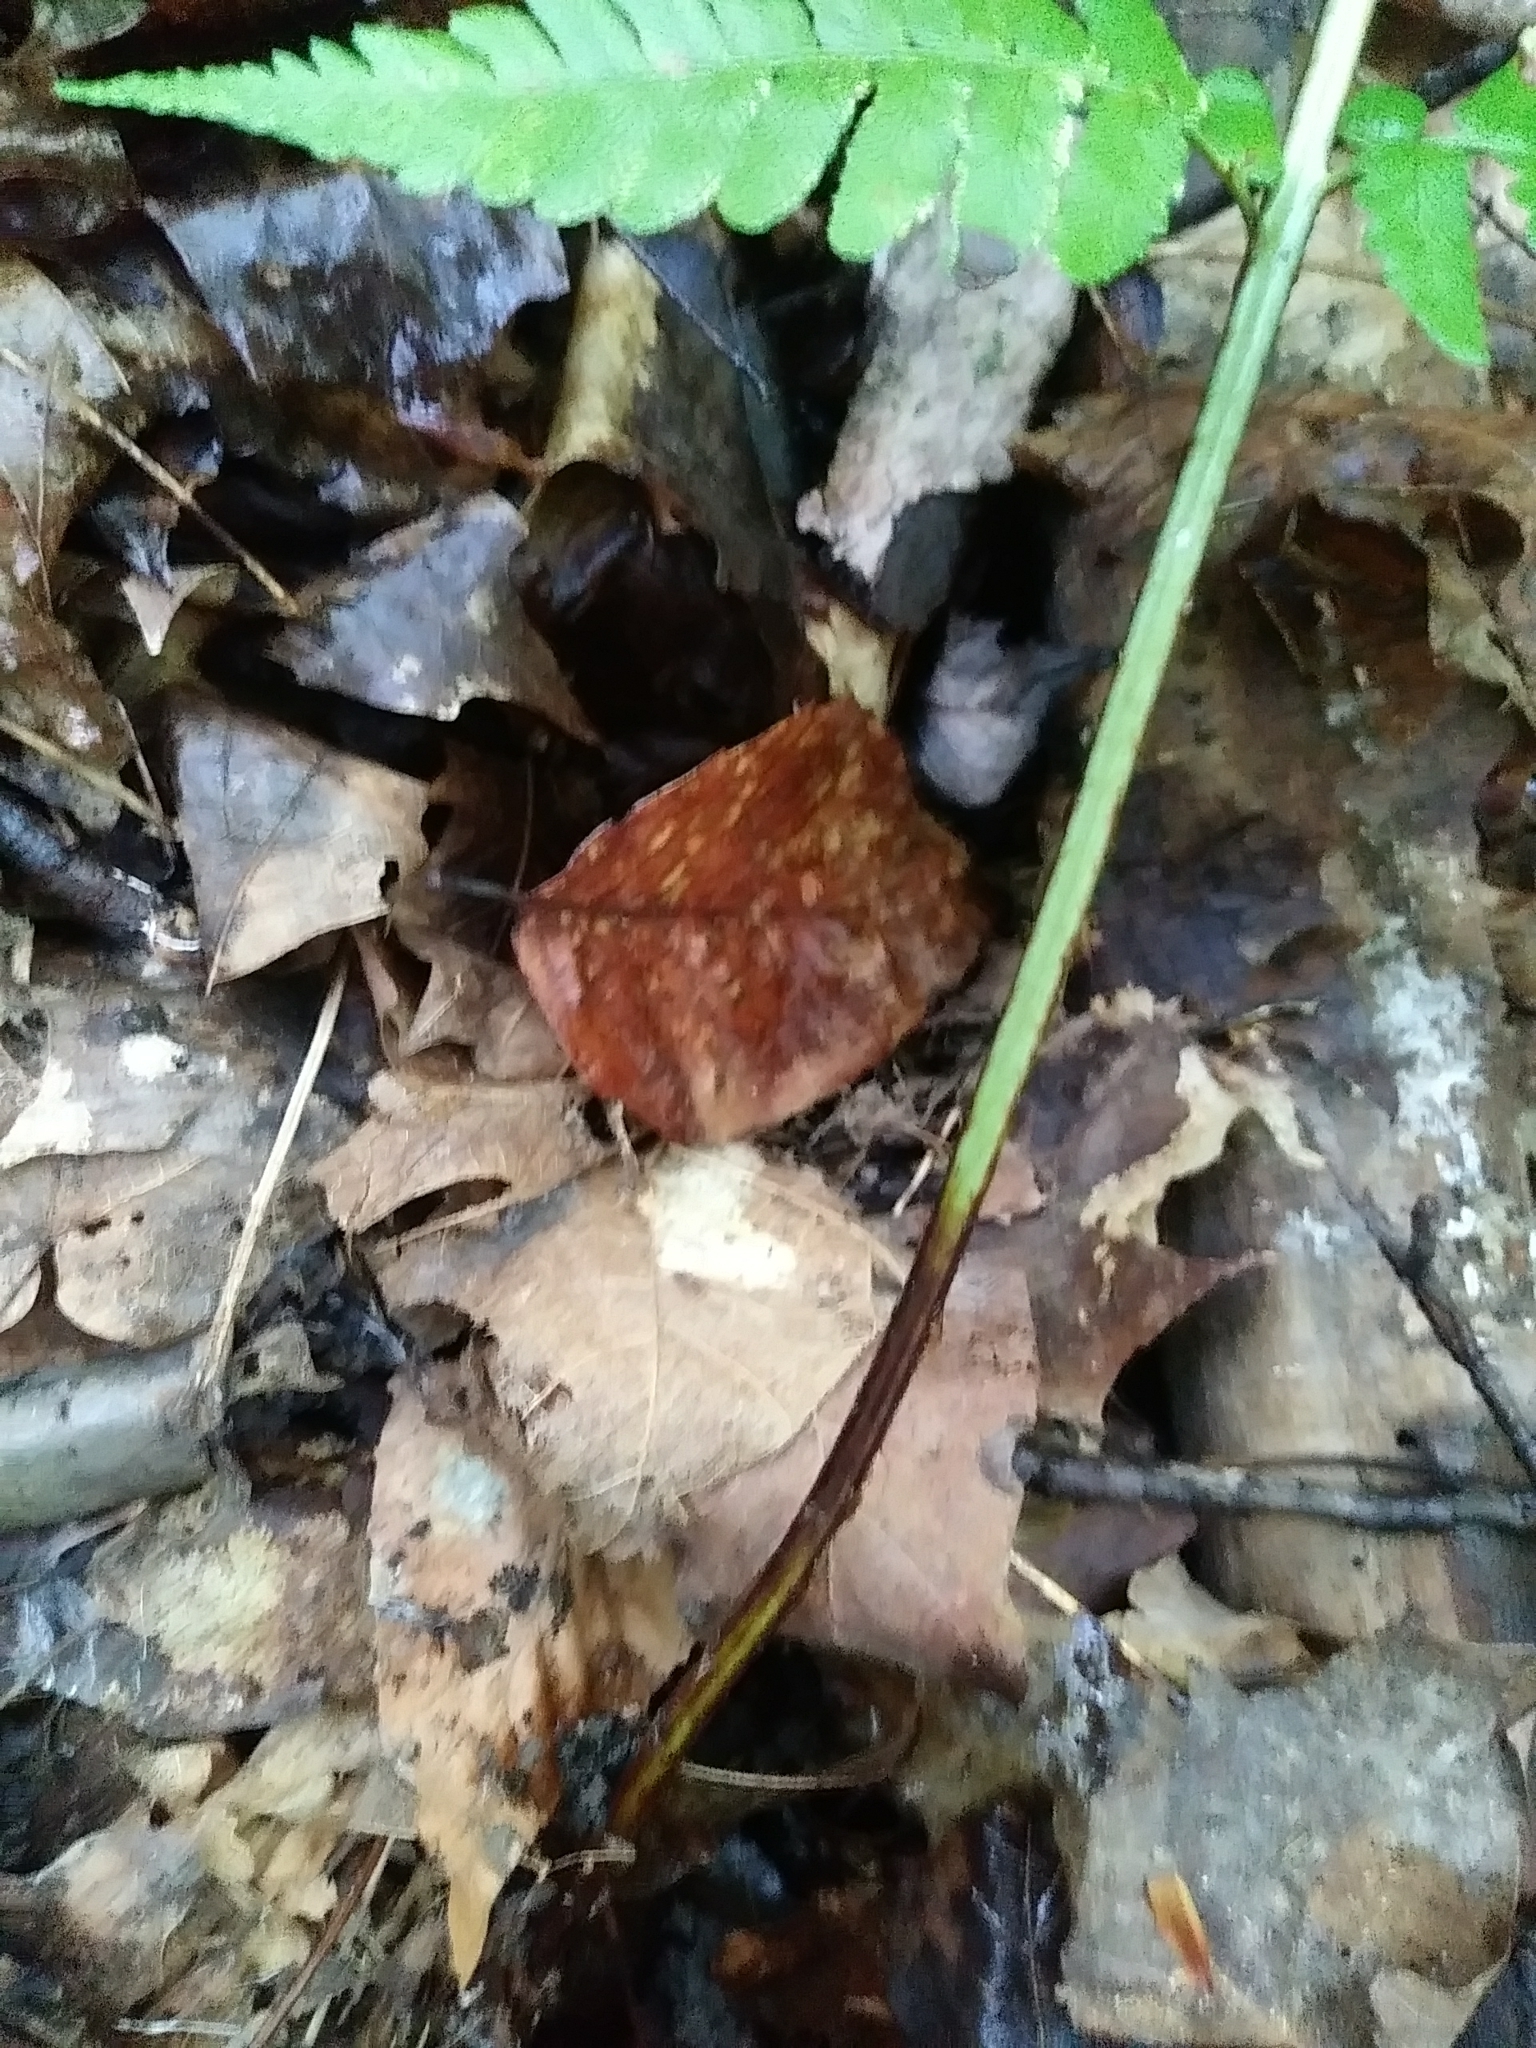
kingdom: Plantae
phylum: Tracheophyta
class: Polypodiopsida
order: Polypodiales
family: Dryopteridaceae
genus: Dryopteris
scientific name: Dryopteris marginalis
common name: Marginal wood fern
